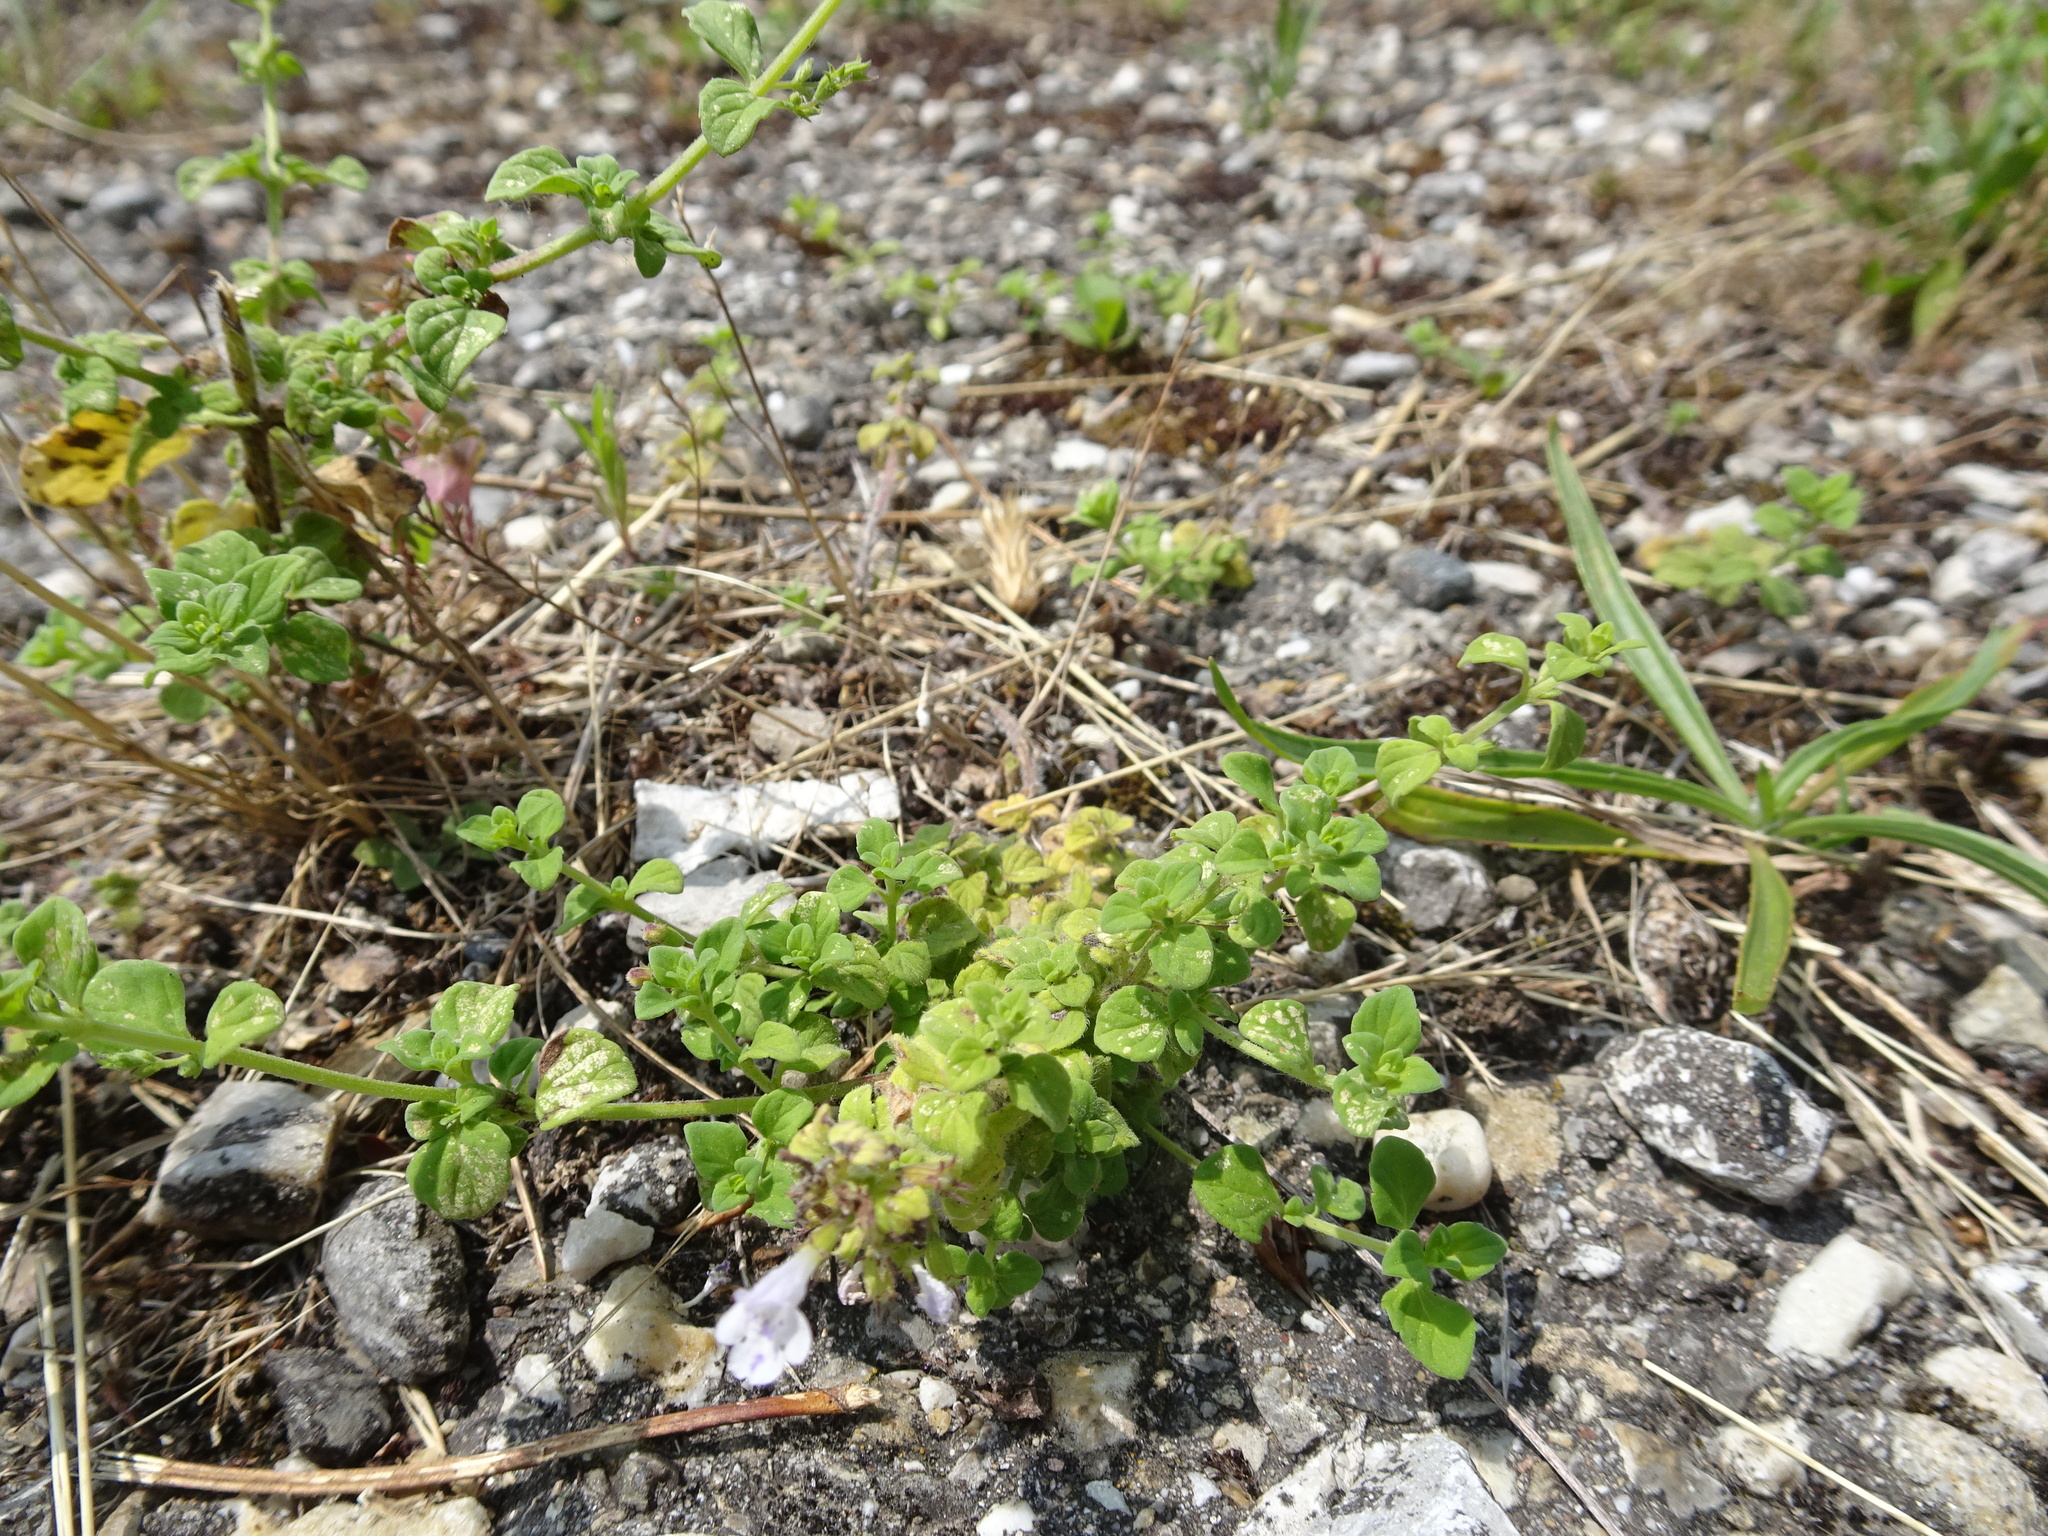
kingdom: Plantae
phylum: Tracheophyta
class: Magnoliopsida
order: Lamiales
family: Lamiaceae
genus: Clinopodium
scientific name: Clinopodium nepeta
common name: Lesser calamint
